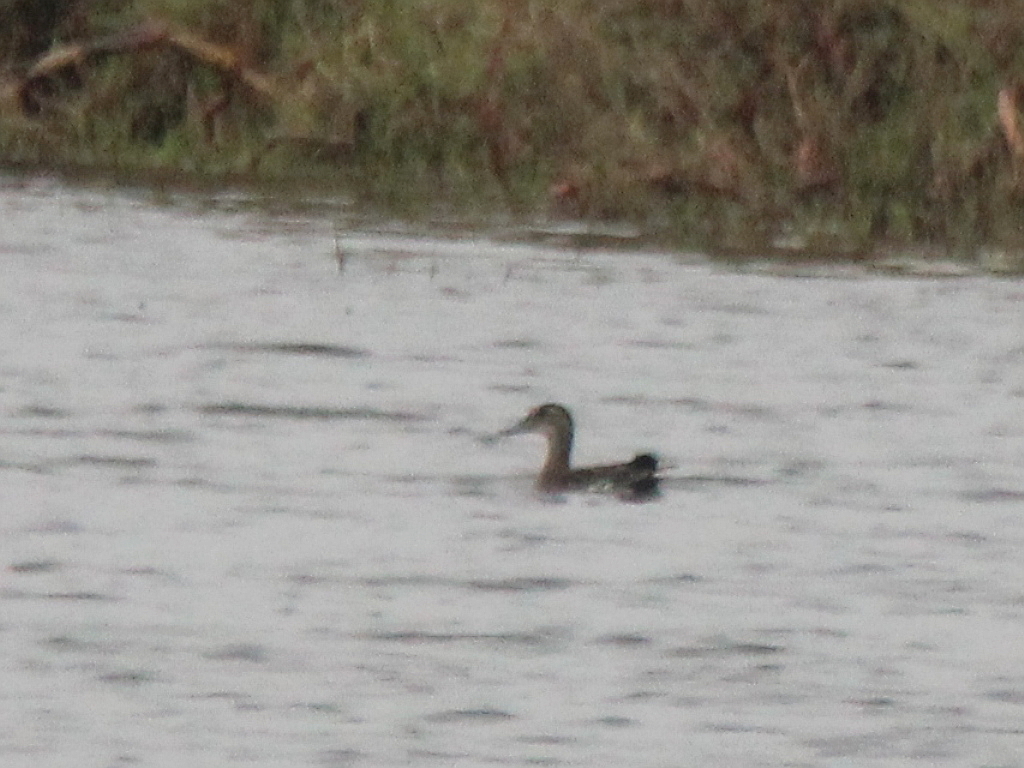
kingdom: Animalia
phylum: Chordata
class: Aves
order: Anseriformes
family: Anatidae
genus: Spatula
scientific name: Spatula querquedula
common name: Garganey
